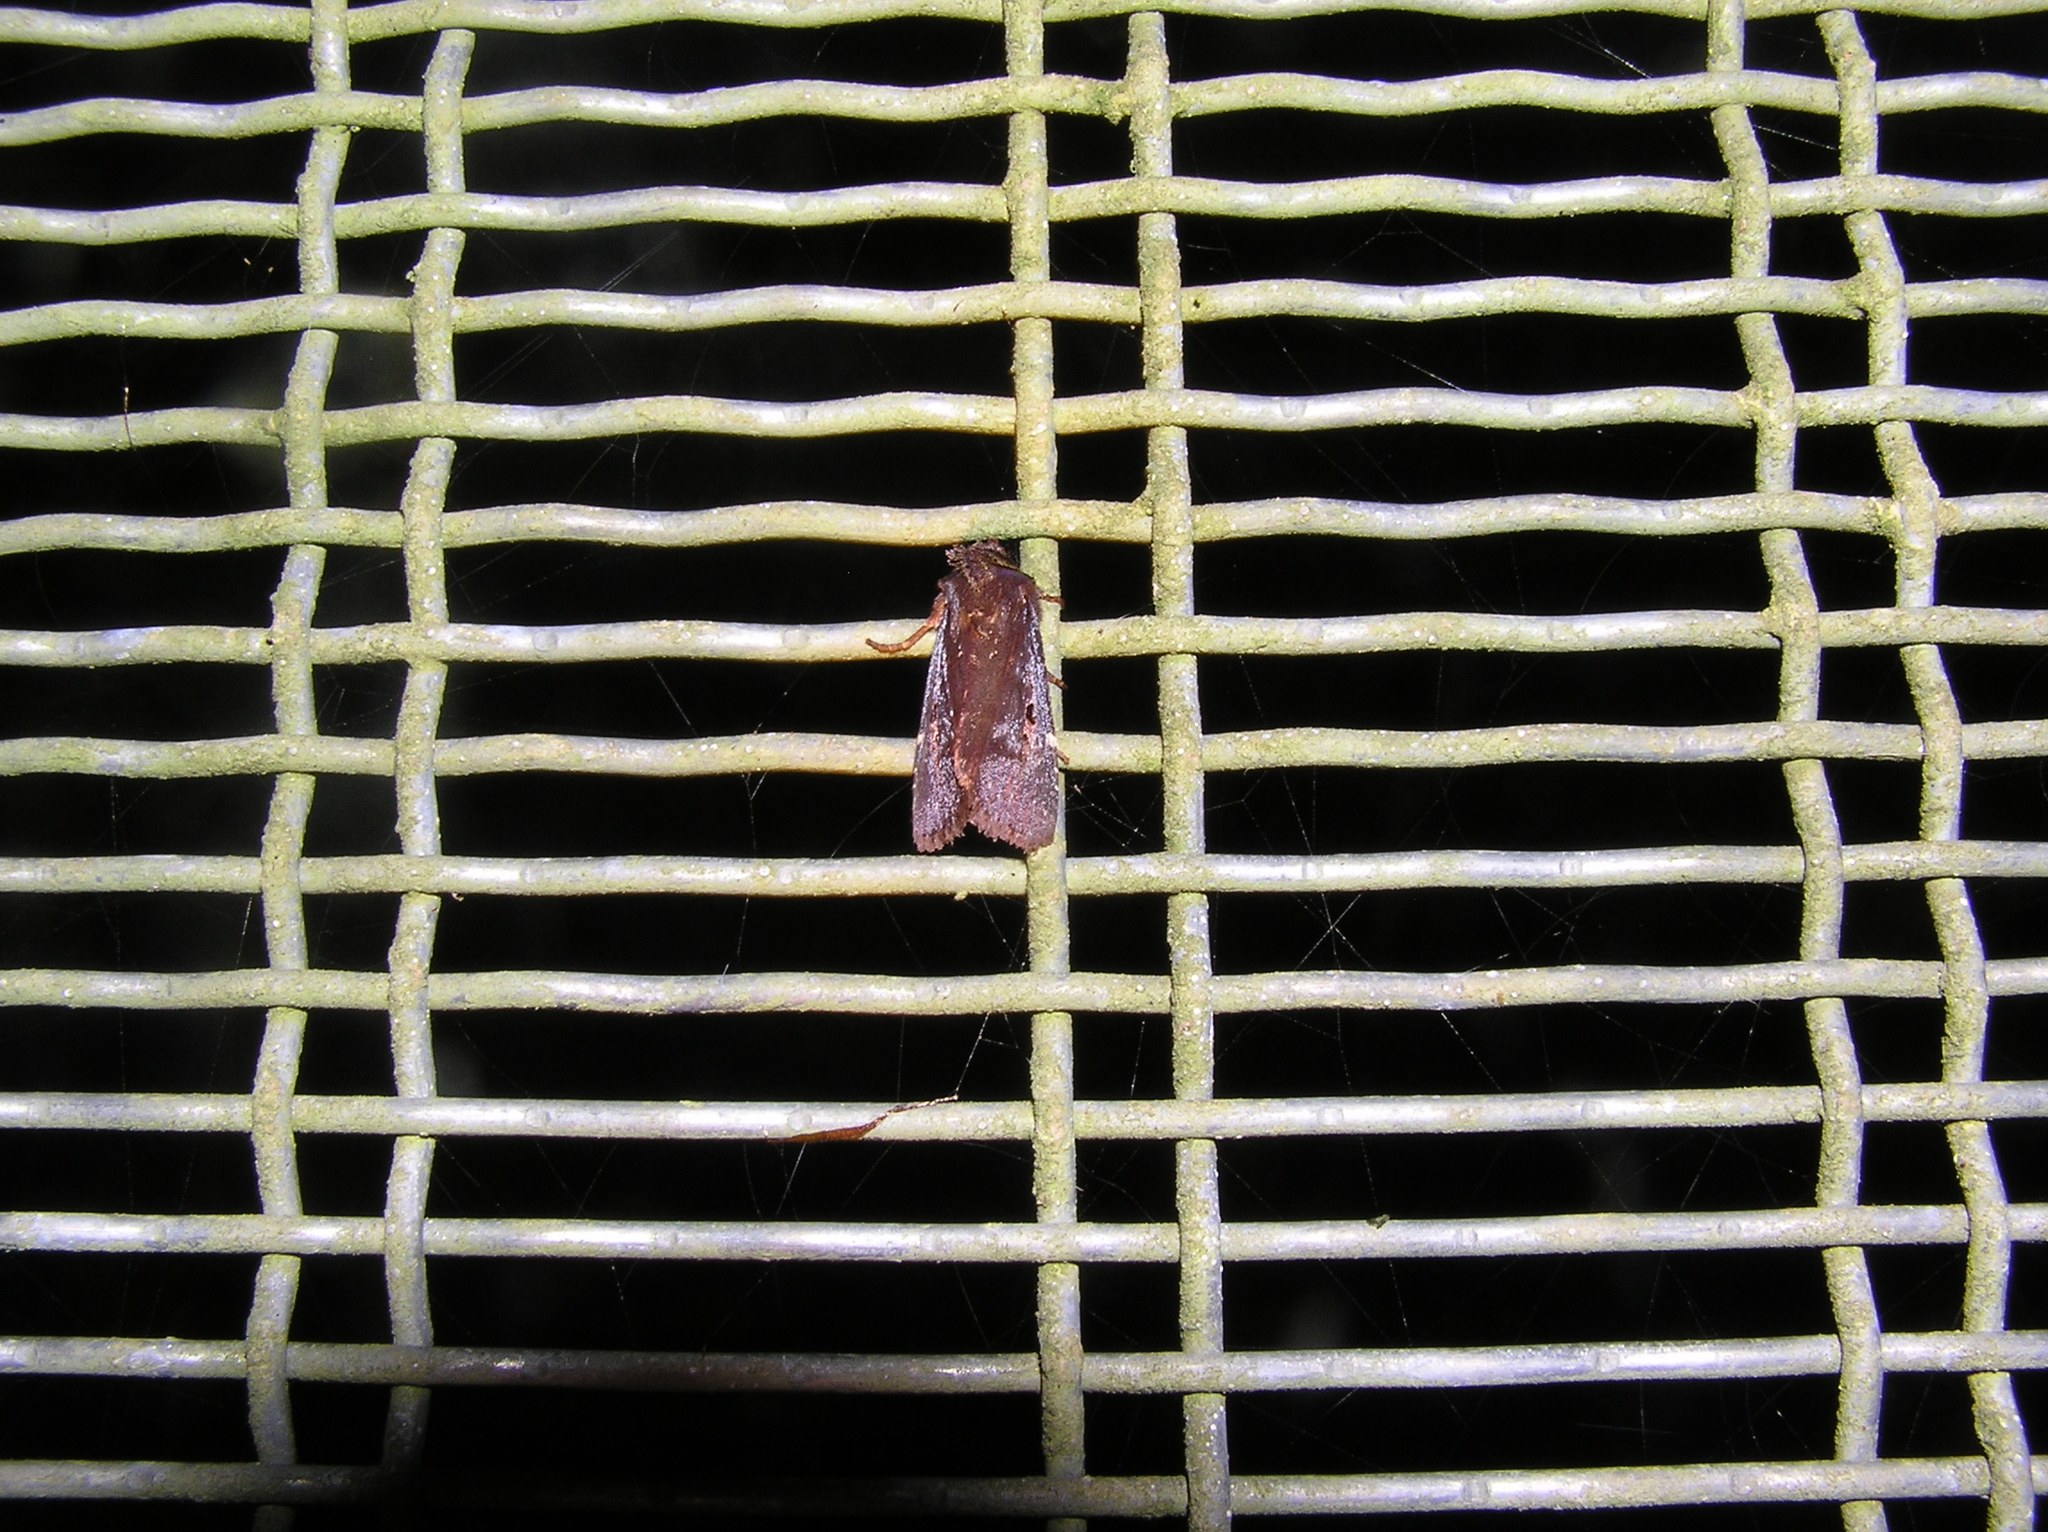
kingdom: Animalia
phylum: Arthropoda
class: Insecta
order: Lepidoptera
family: Noctuidae
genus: Austramathes
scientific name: Austramathes purpurea
